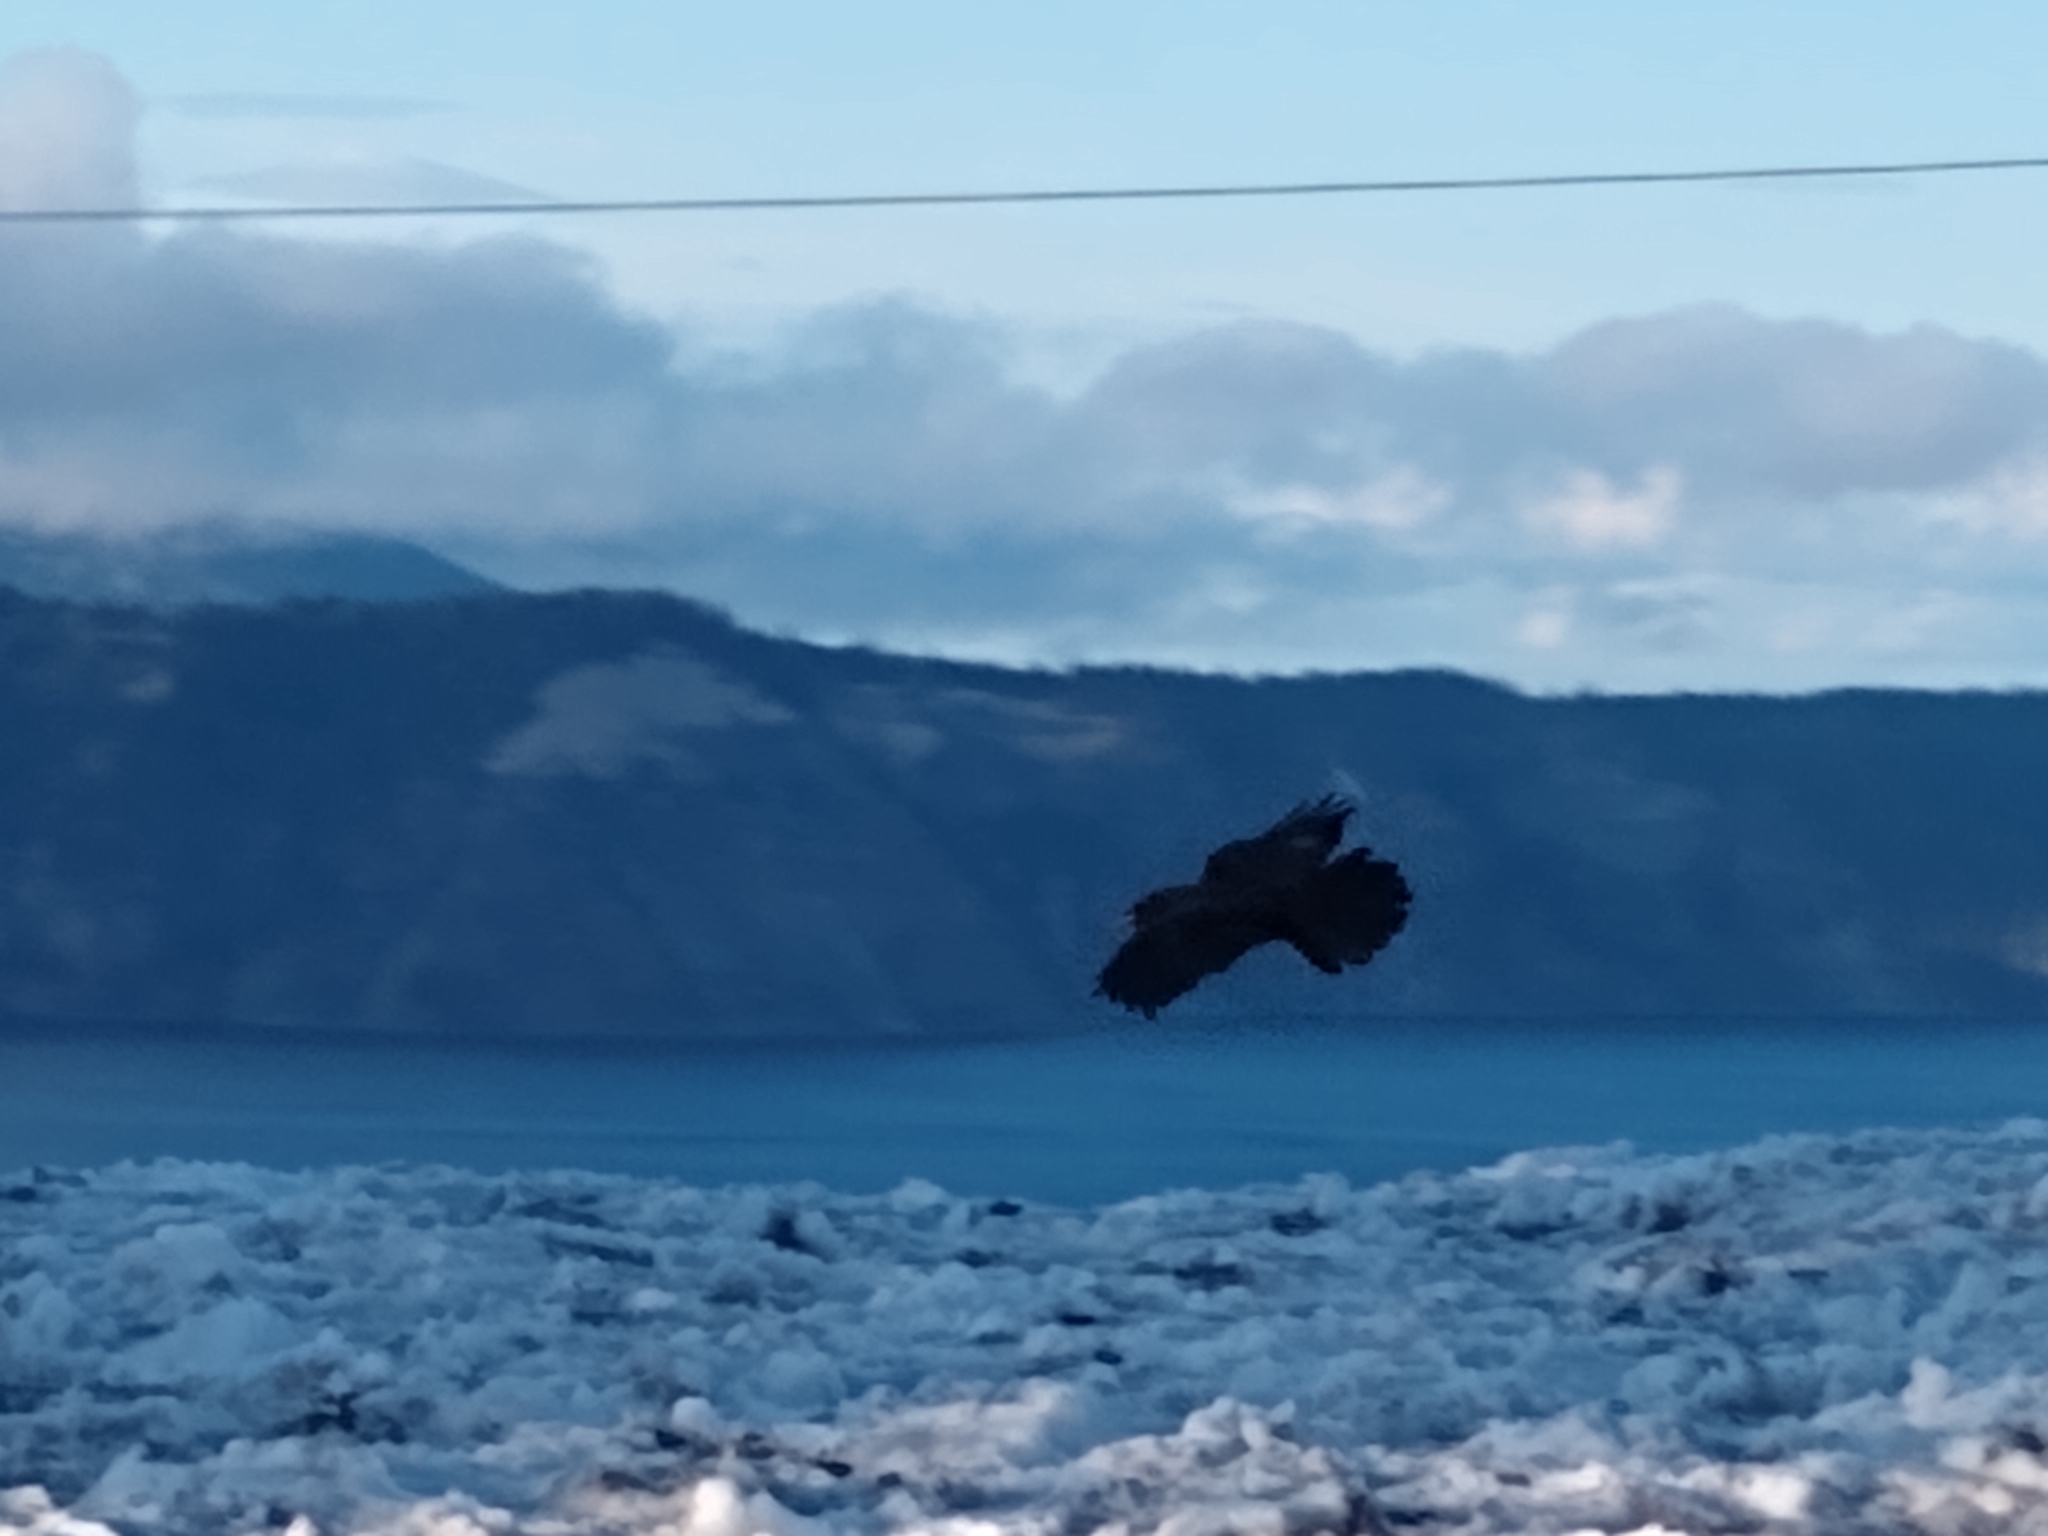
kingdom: Animalia
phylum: Chordata
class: Aves
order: Passeriformes
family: Corvidae
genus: Corvus
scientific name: Corvus brachyrhynchos
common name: American crow
